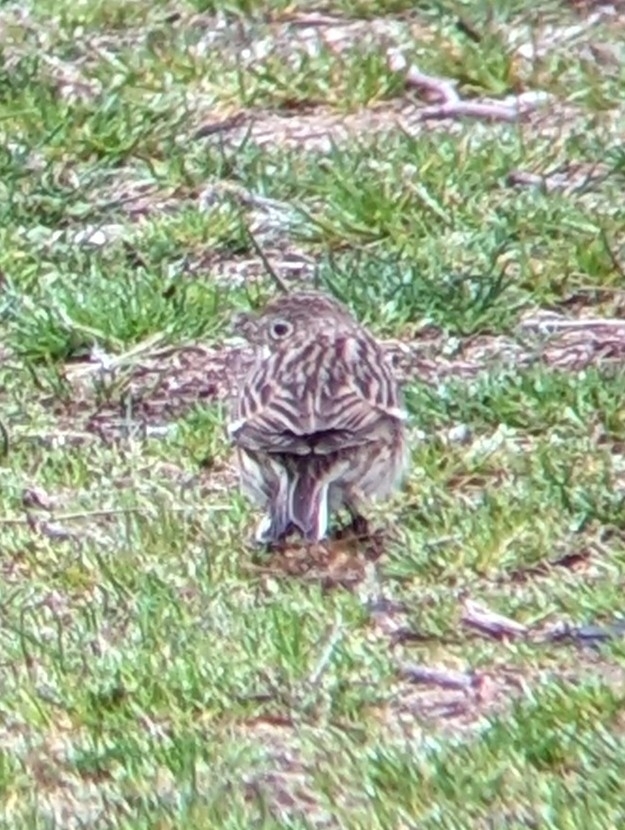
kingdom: Animalia
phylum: Chordata
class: Aves
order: Passeriformes
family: Passerellidae
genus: Pooecetes
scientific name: Pooecetes gramineus
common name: Vesper sparrow
